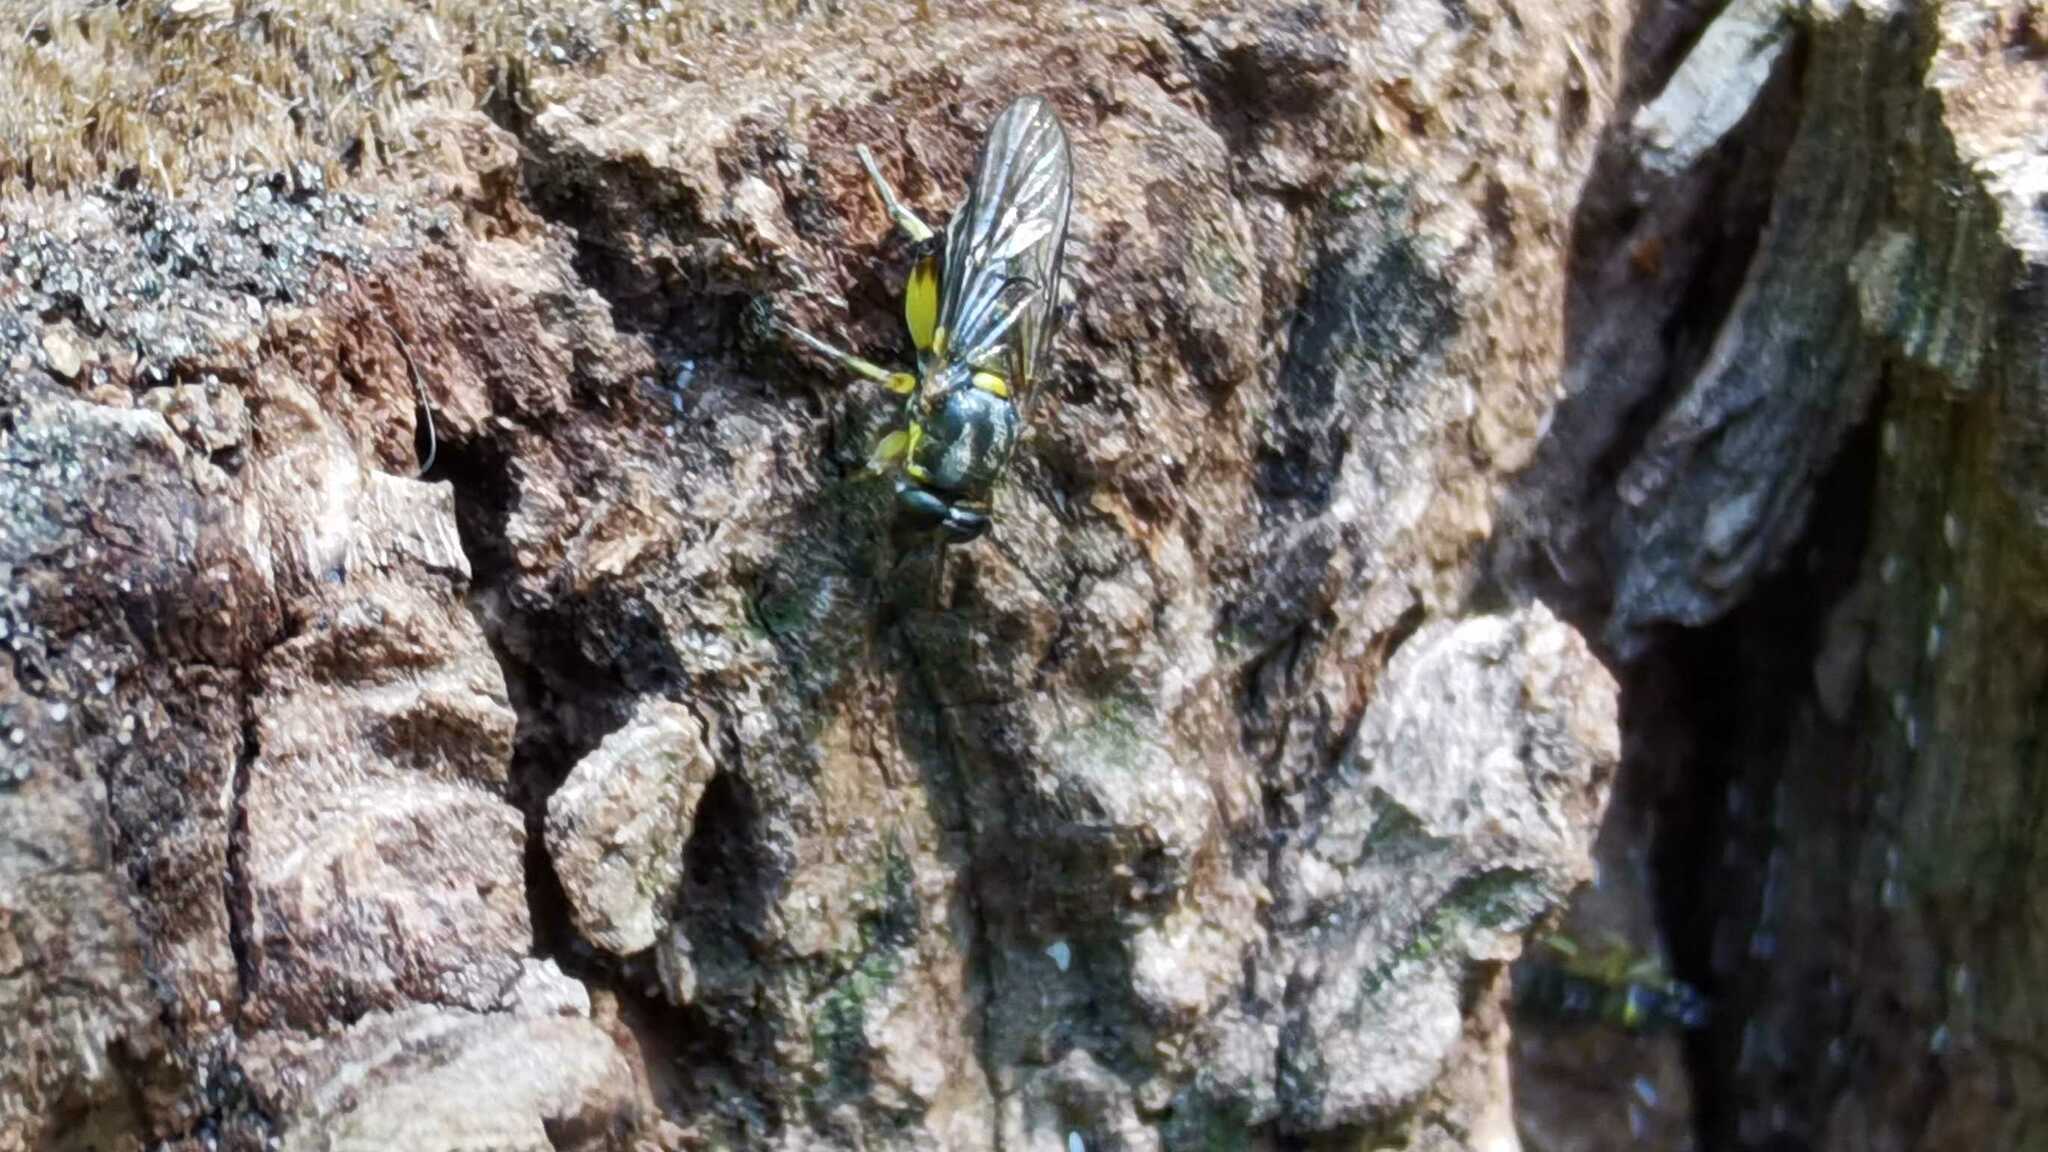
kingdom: Animalia
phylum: Arthropoda
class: Insecta
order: Diptera
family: Xylomyidae
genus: Solva
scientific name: Solva marginata
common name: Drab wood-soldierfly
